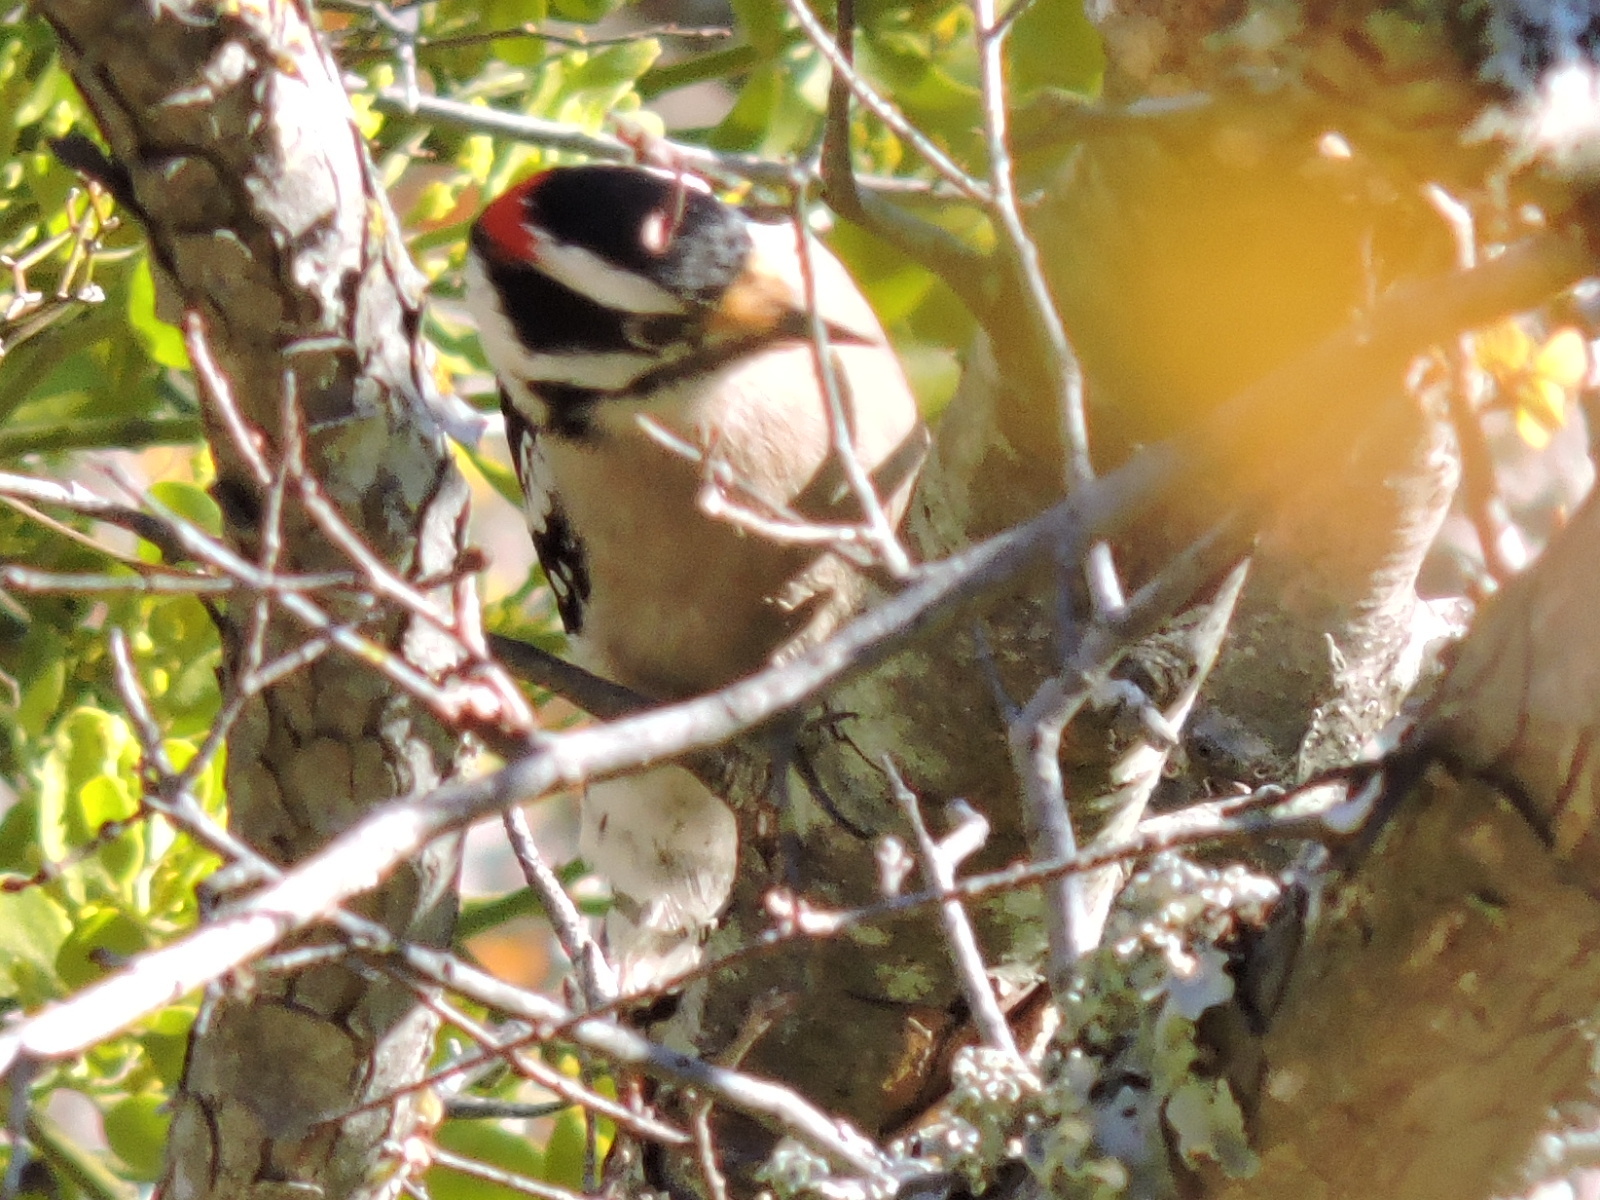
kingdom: Animalia
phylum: Chordata
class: Aves
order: Piciformes
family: Picidae
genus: Dryobates
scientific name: Dryobates pubescens
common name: Downy woodpecker
